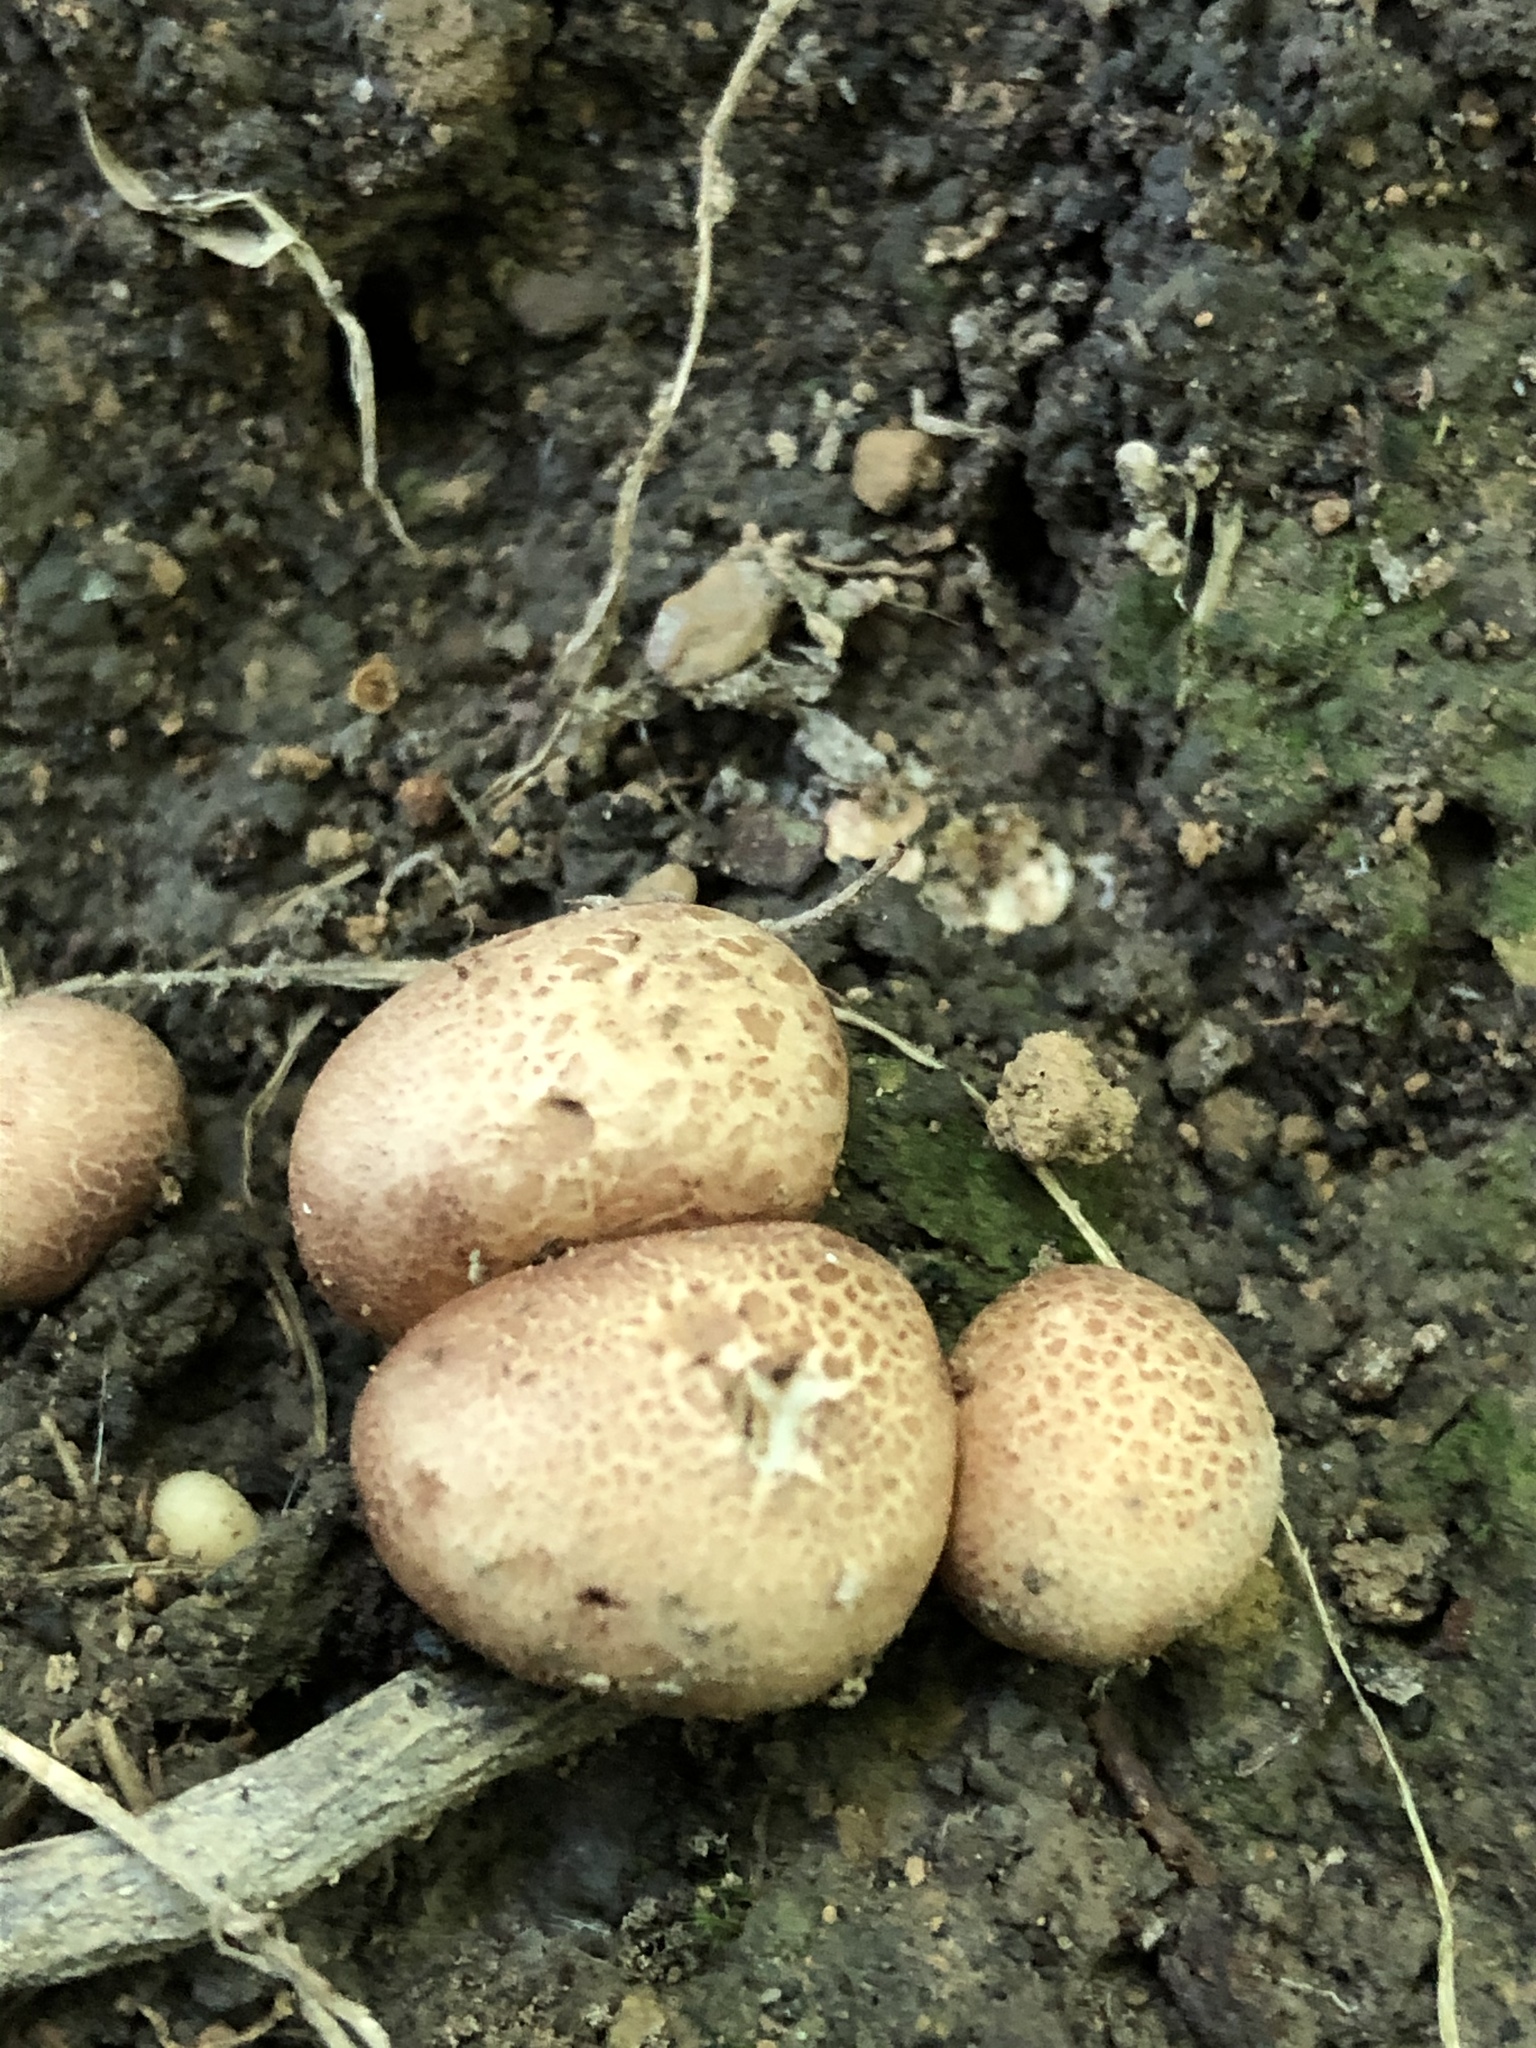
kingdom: Fungi
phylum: Basidiomycota
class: Agaricomycetes
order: Agaricales
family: Lycoperdaceae
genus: Apioperdon
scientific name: Apioperdon pyriforme
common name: Pear-shaped puffball
